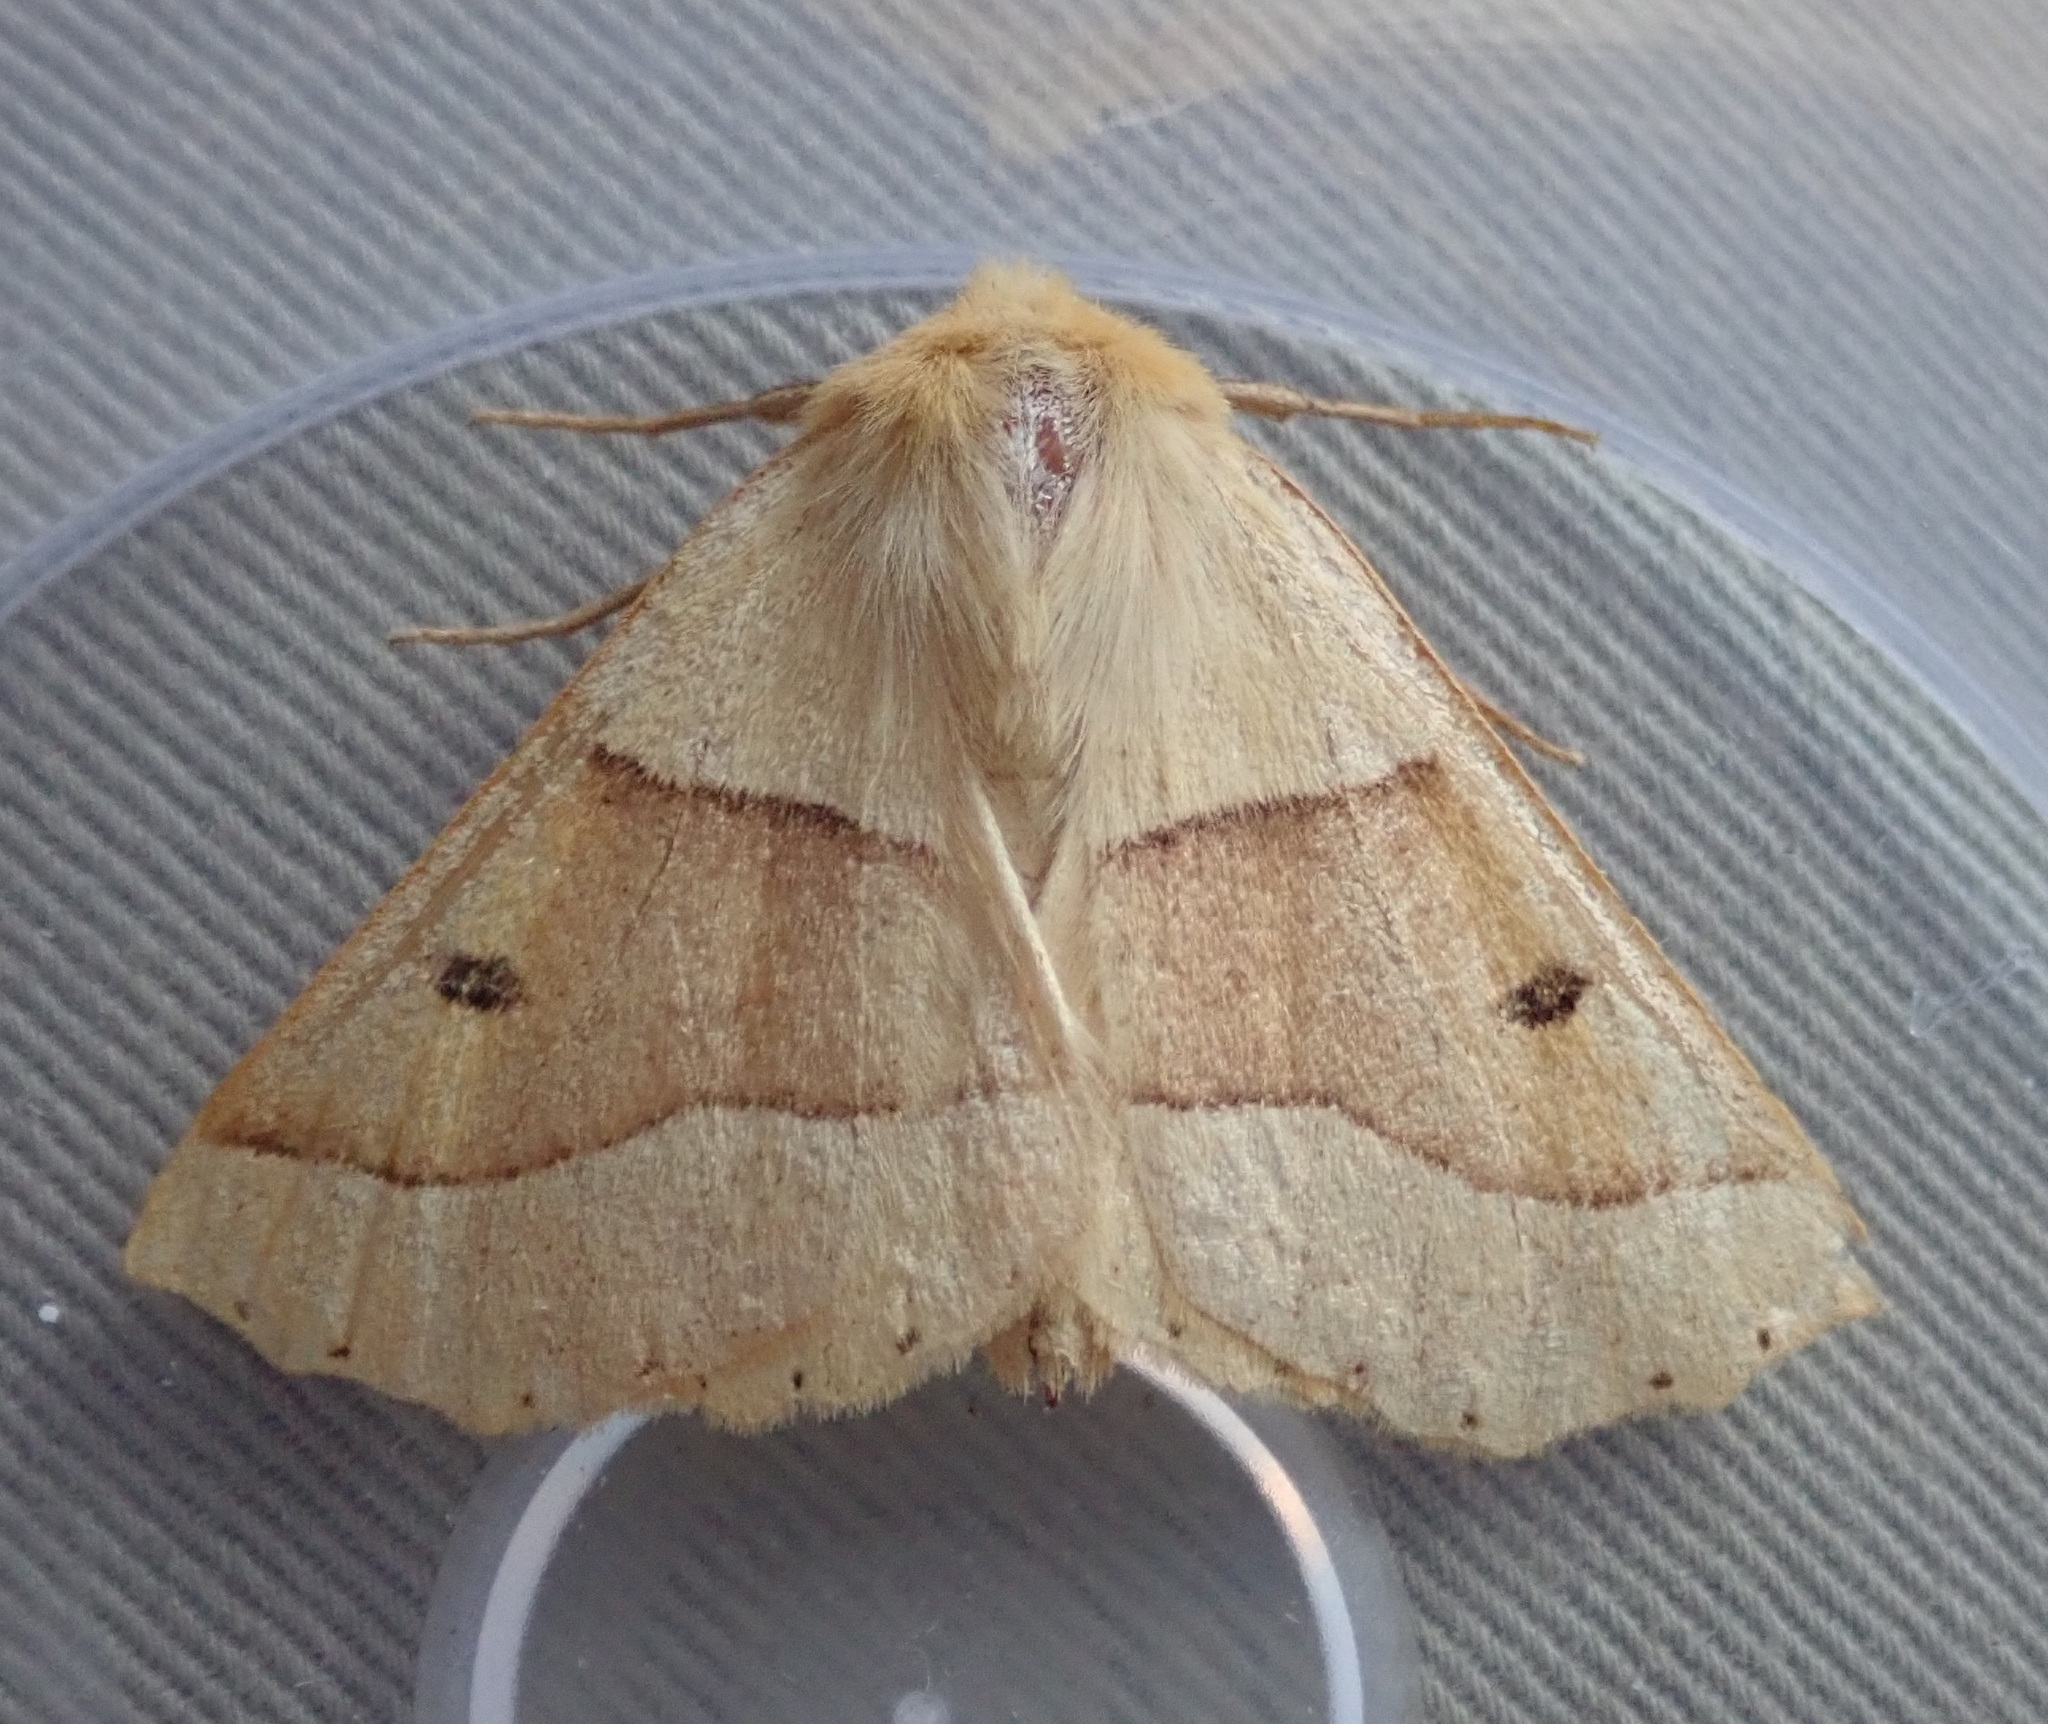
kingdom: Animalia
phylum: Arthropoda
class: Insecta
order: Lepidoptera
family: Geometridae
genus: Crocallis
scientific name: Crocallis elinguaria
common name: Scalloped oak
